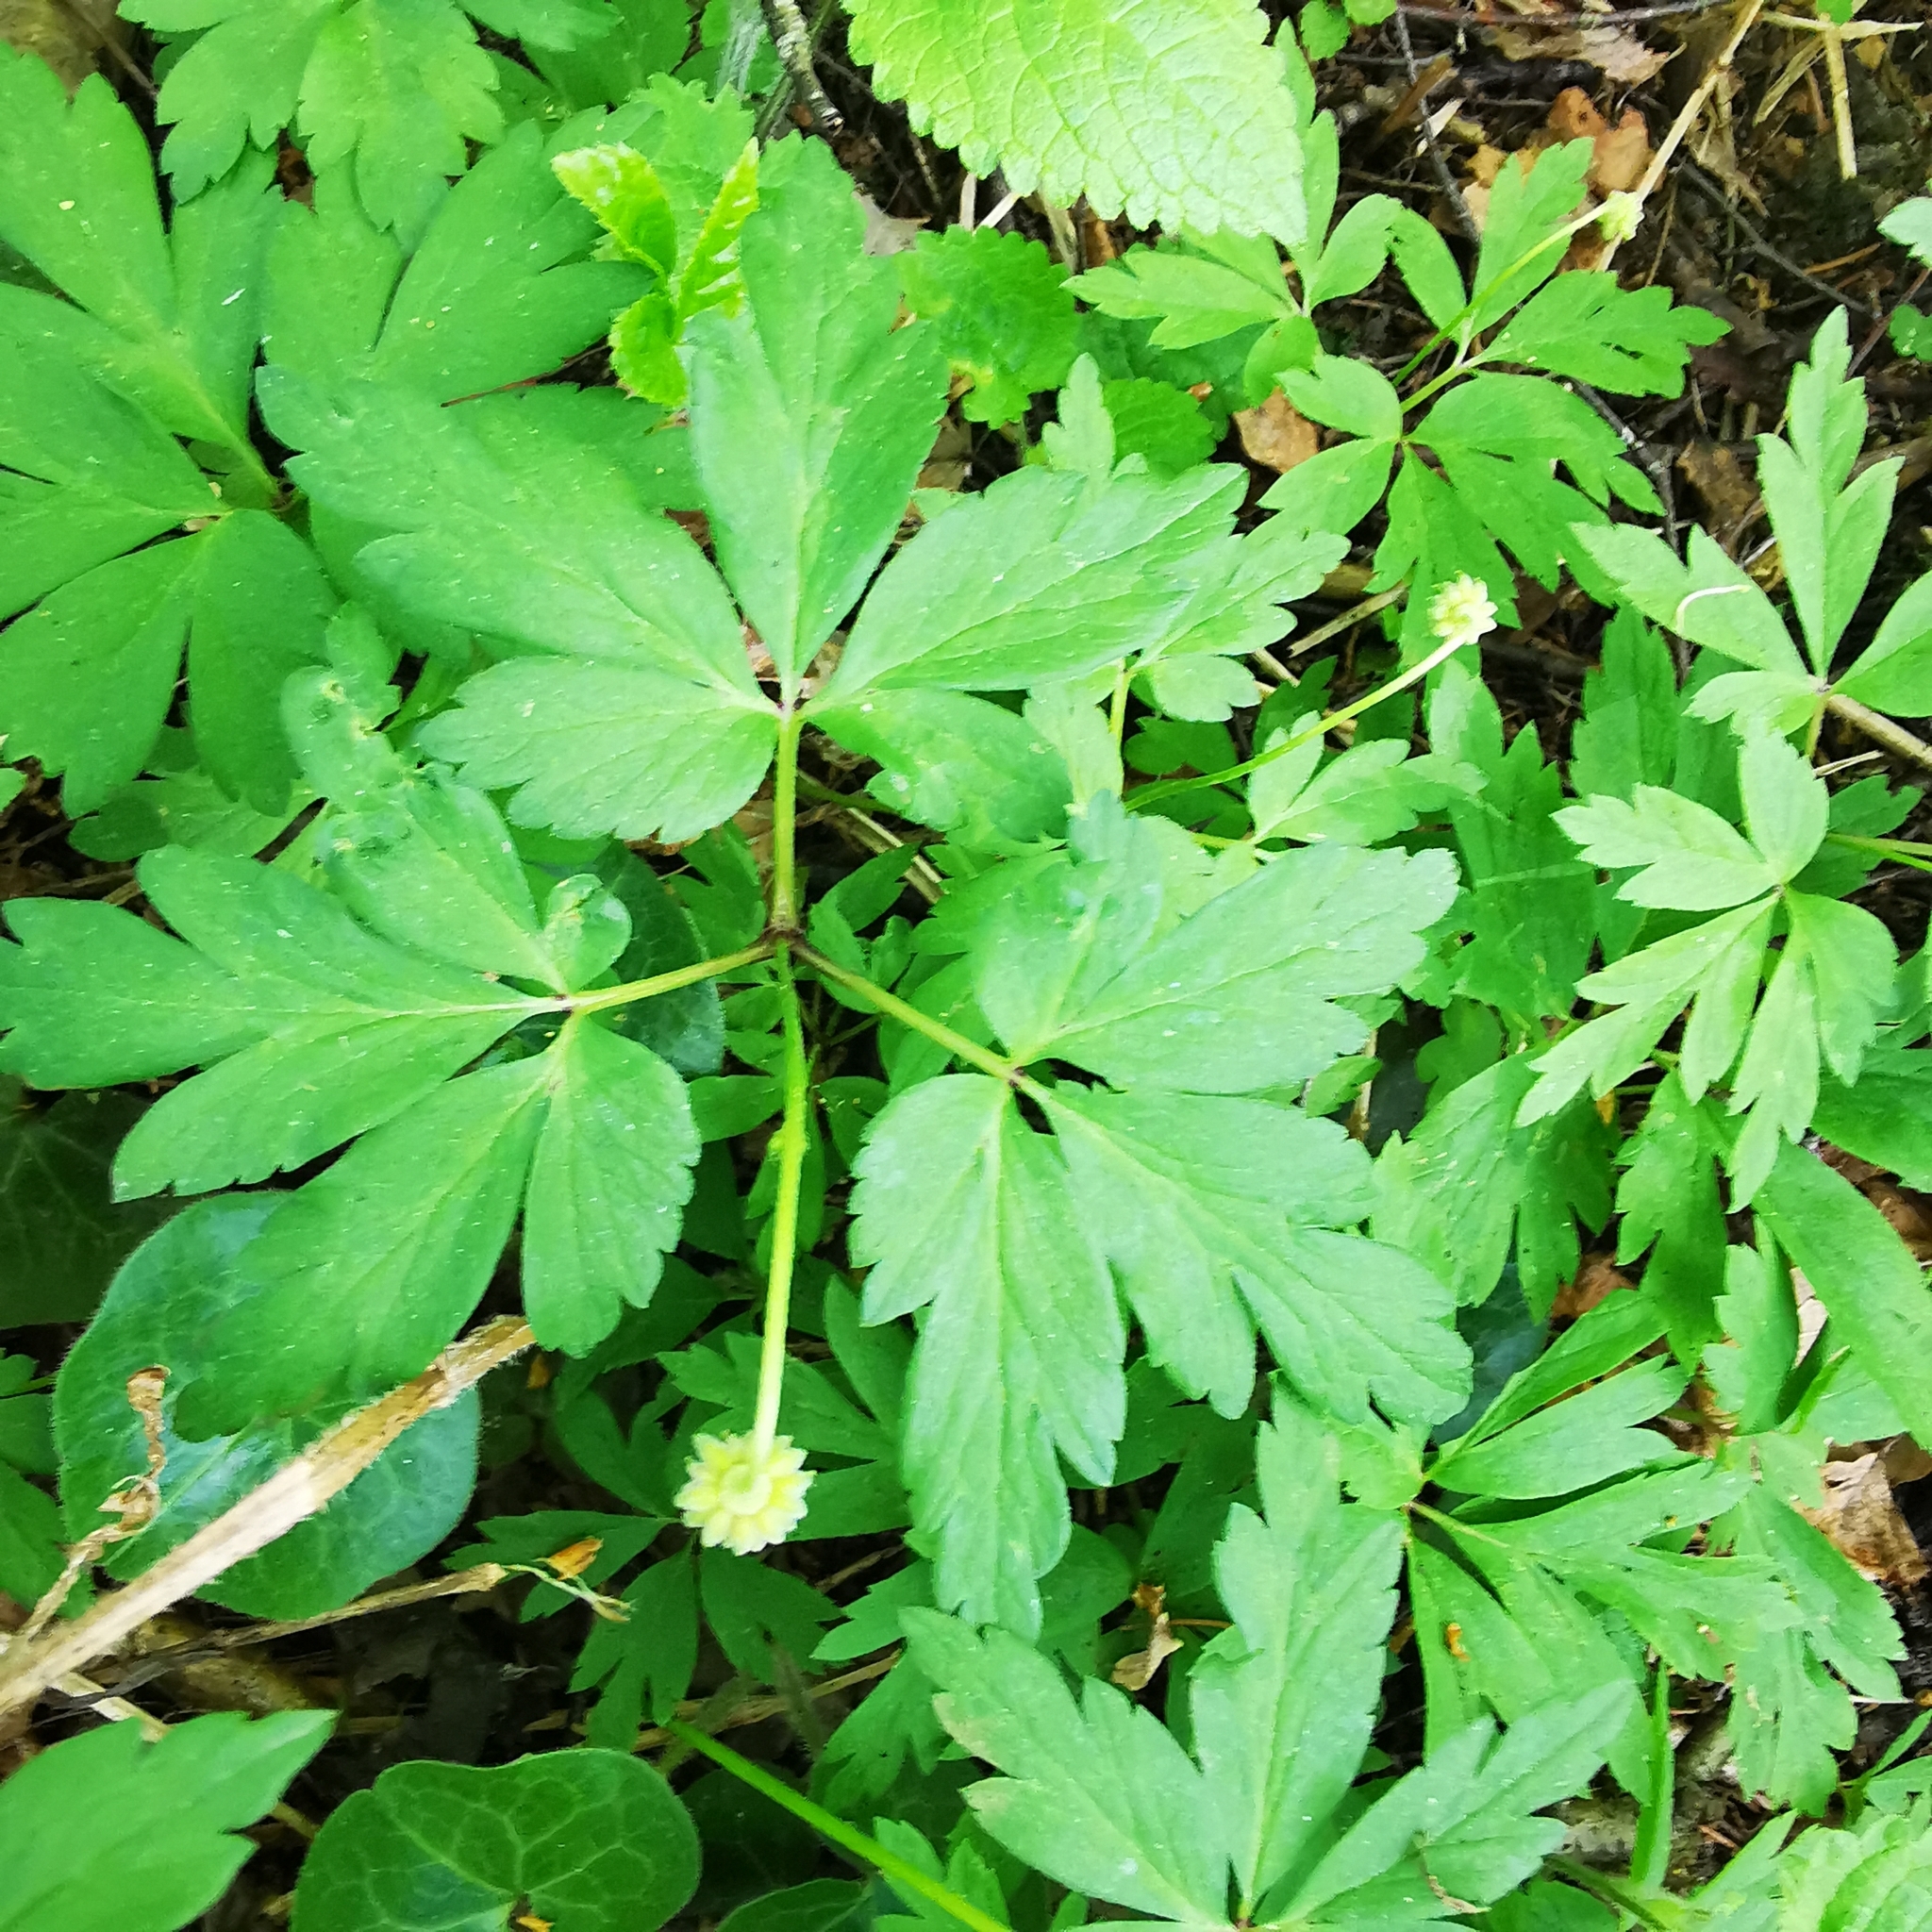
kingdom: Plantae
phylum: Tracheophyta
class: Magnoliopsida
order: Ranunculales
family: Ranunculaceae
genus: Anemone
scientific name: Anemone nemorosa
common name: Wood anemone
